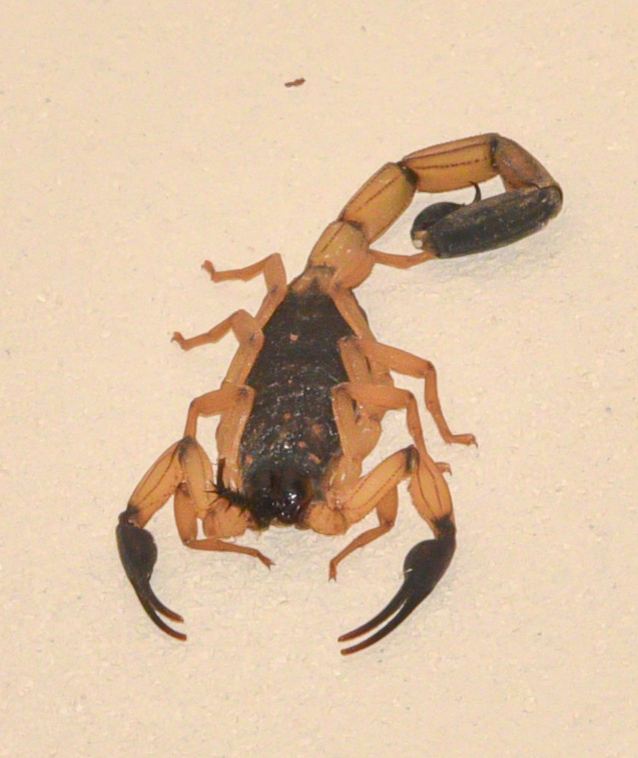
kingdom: Animalia
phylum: Arthropoda
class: Arachnida
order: Scorpiones
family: Buthidae
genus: Centruroides
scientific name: Centruroides bicolor
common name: Scorpions
